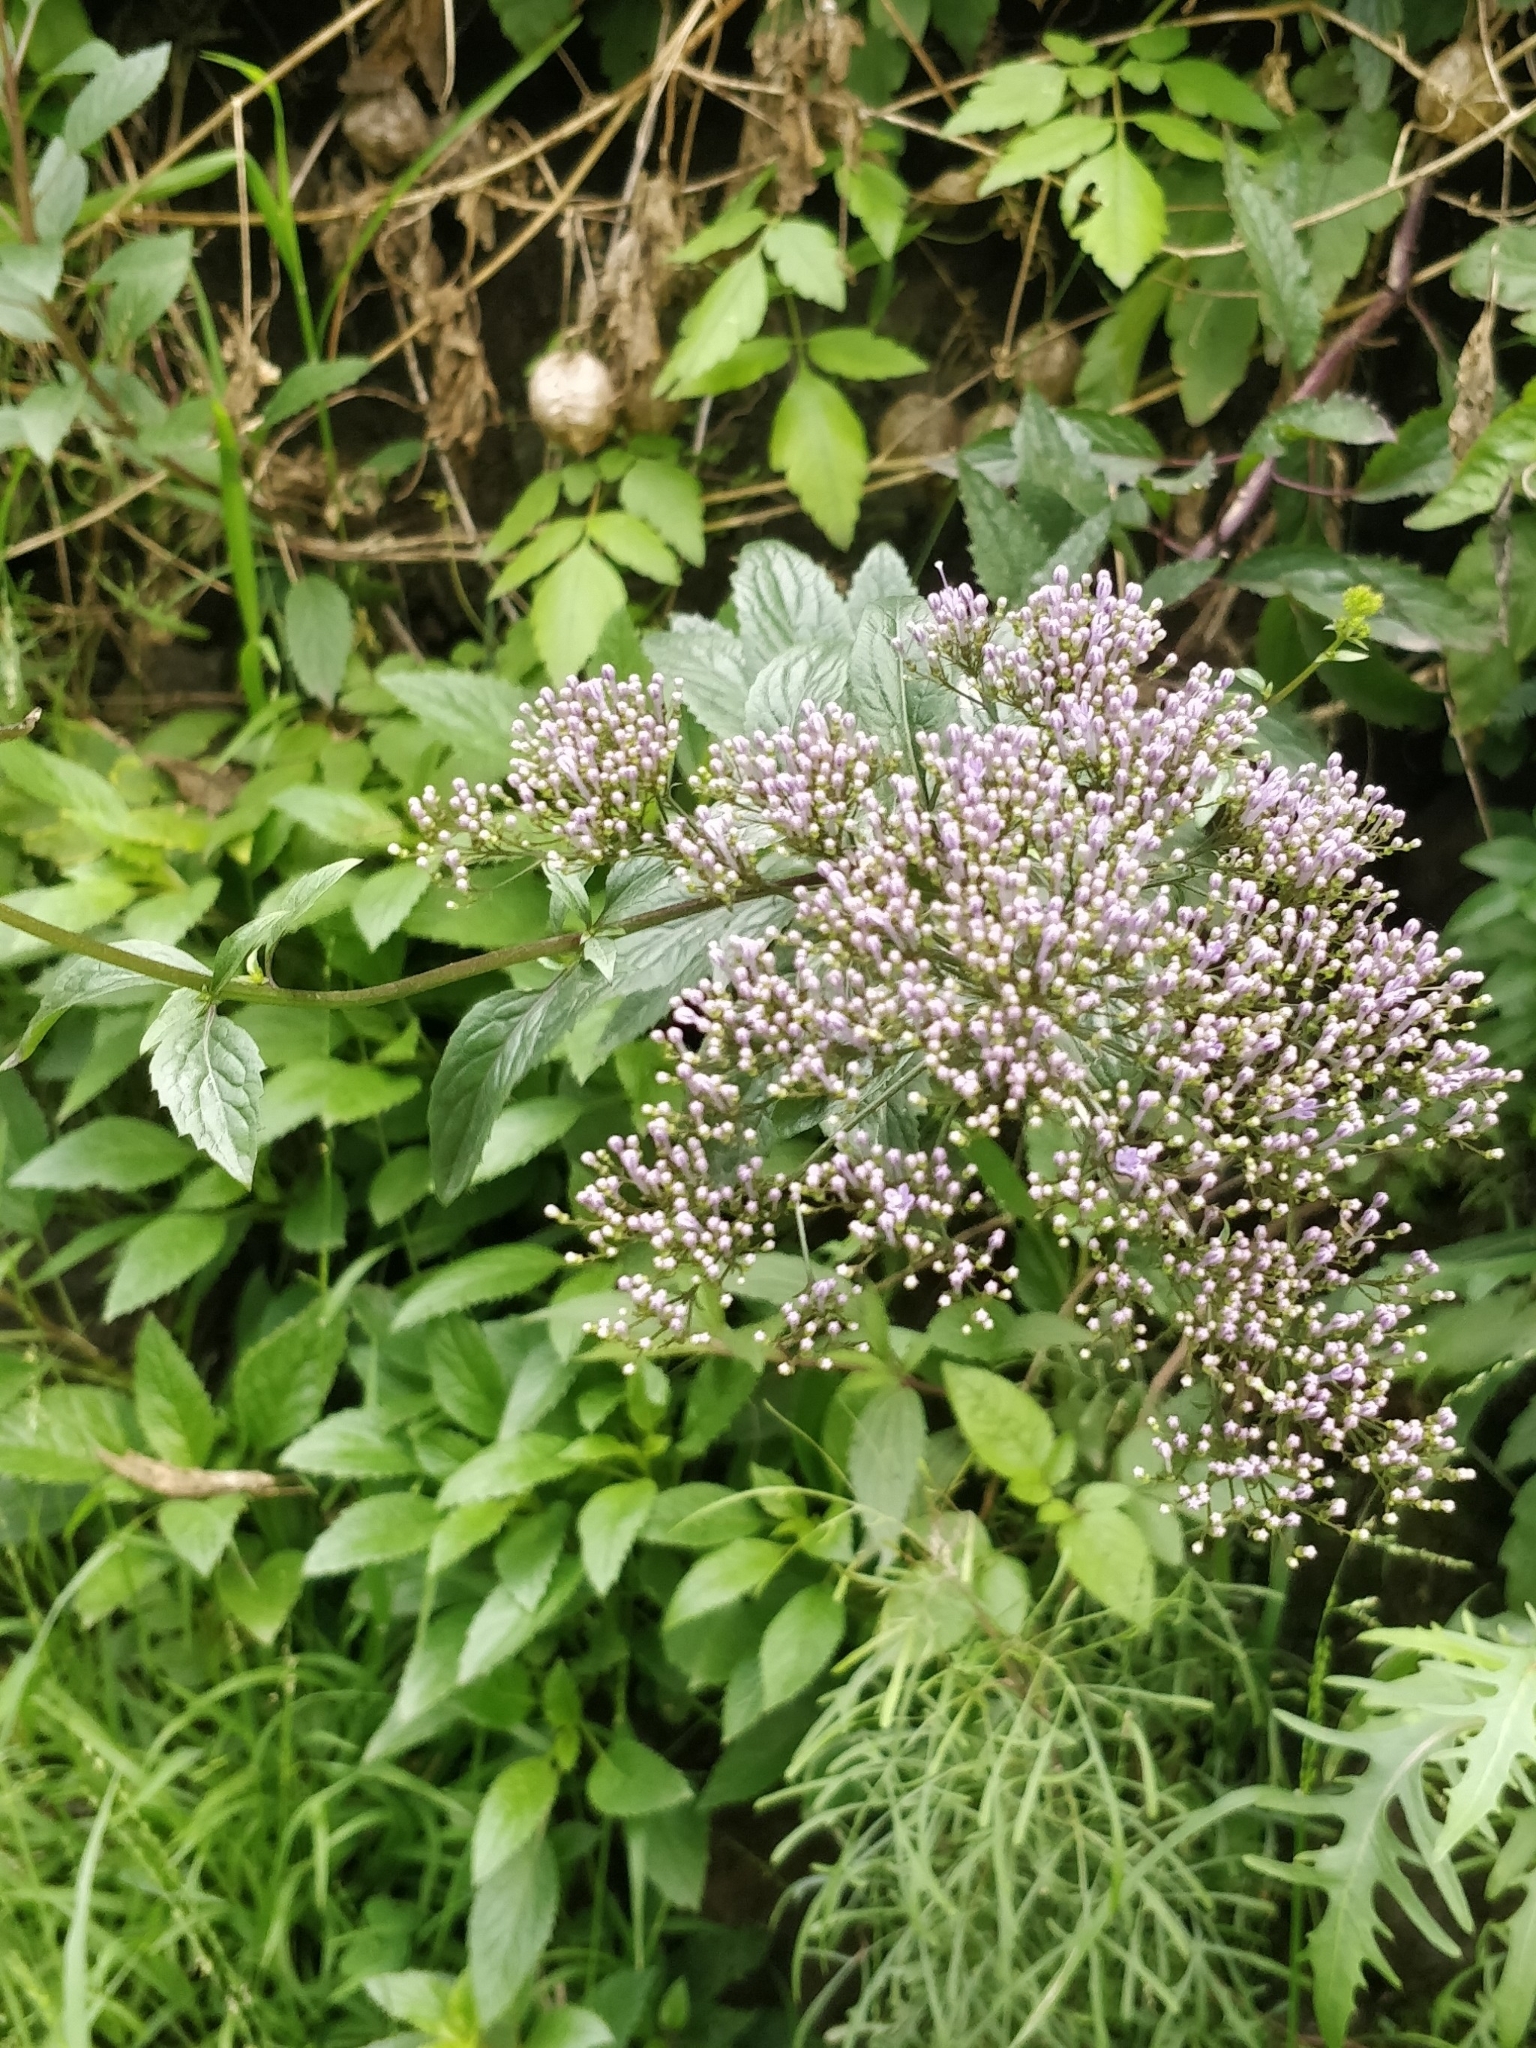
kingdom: Plantae
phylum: Tracheophyta
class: Magnoliopsida
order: Asterales
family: Campanulaceae
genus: Trachelium
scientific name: Trachelium caeruleum
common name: Throatwort
